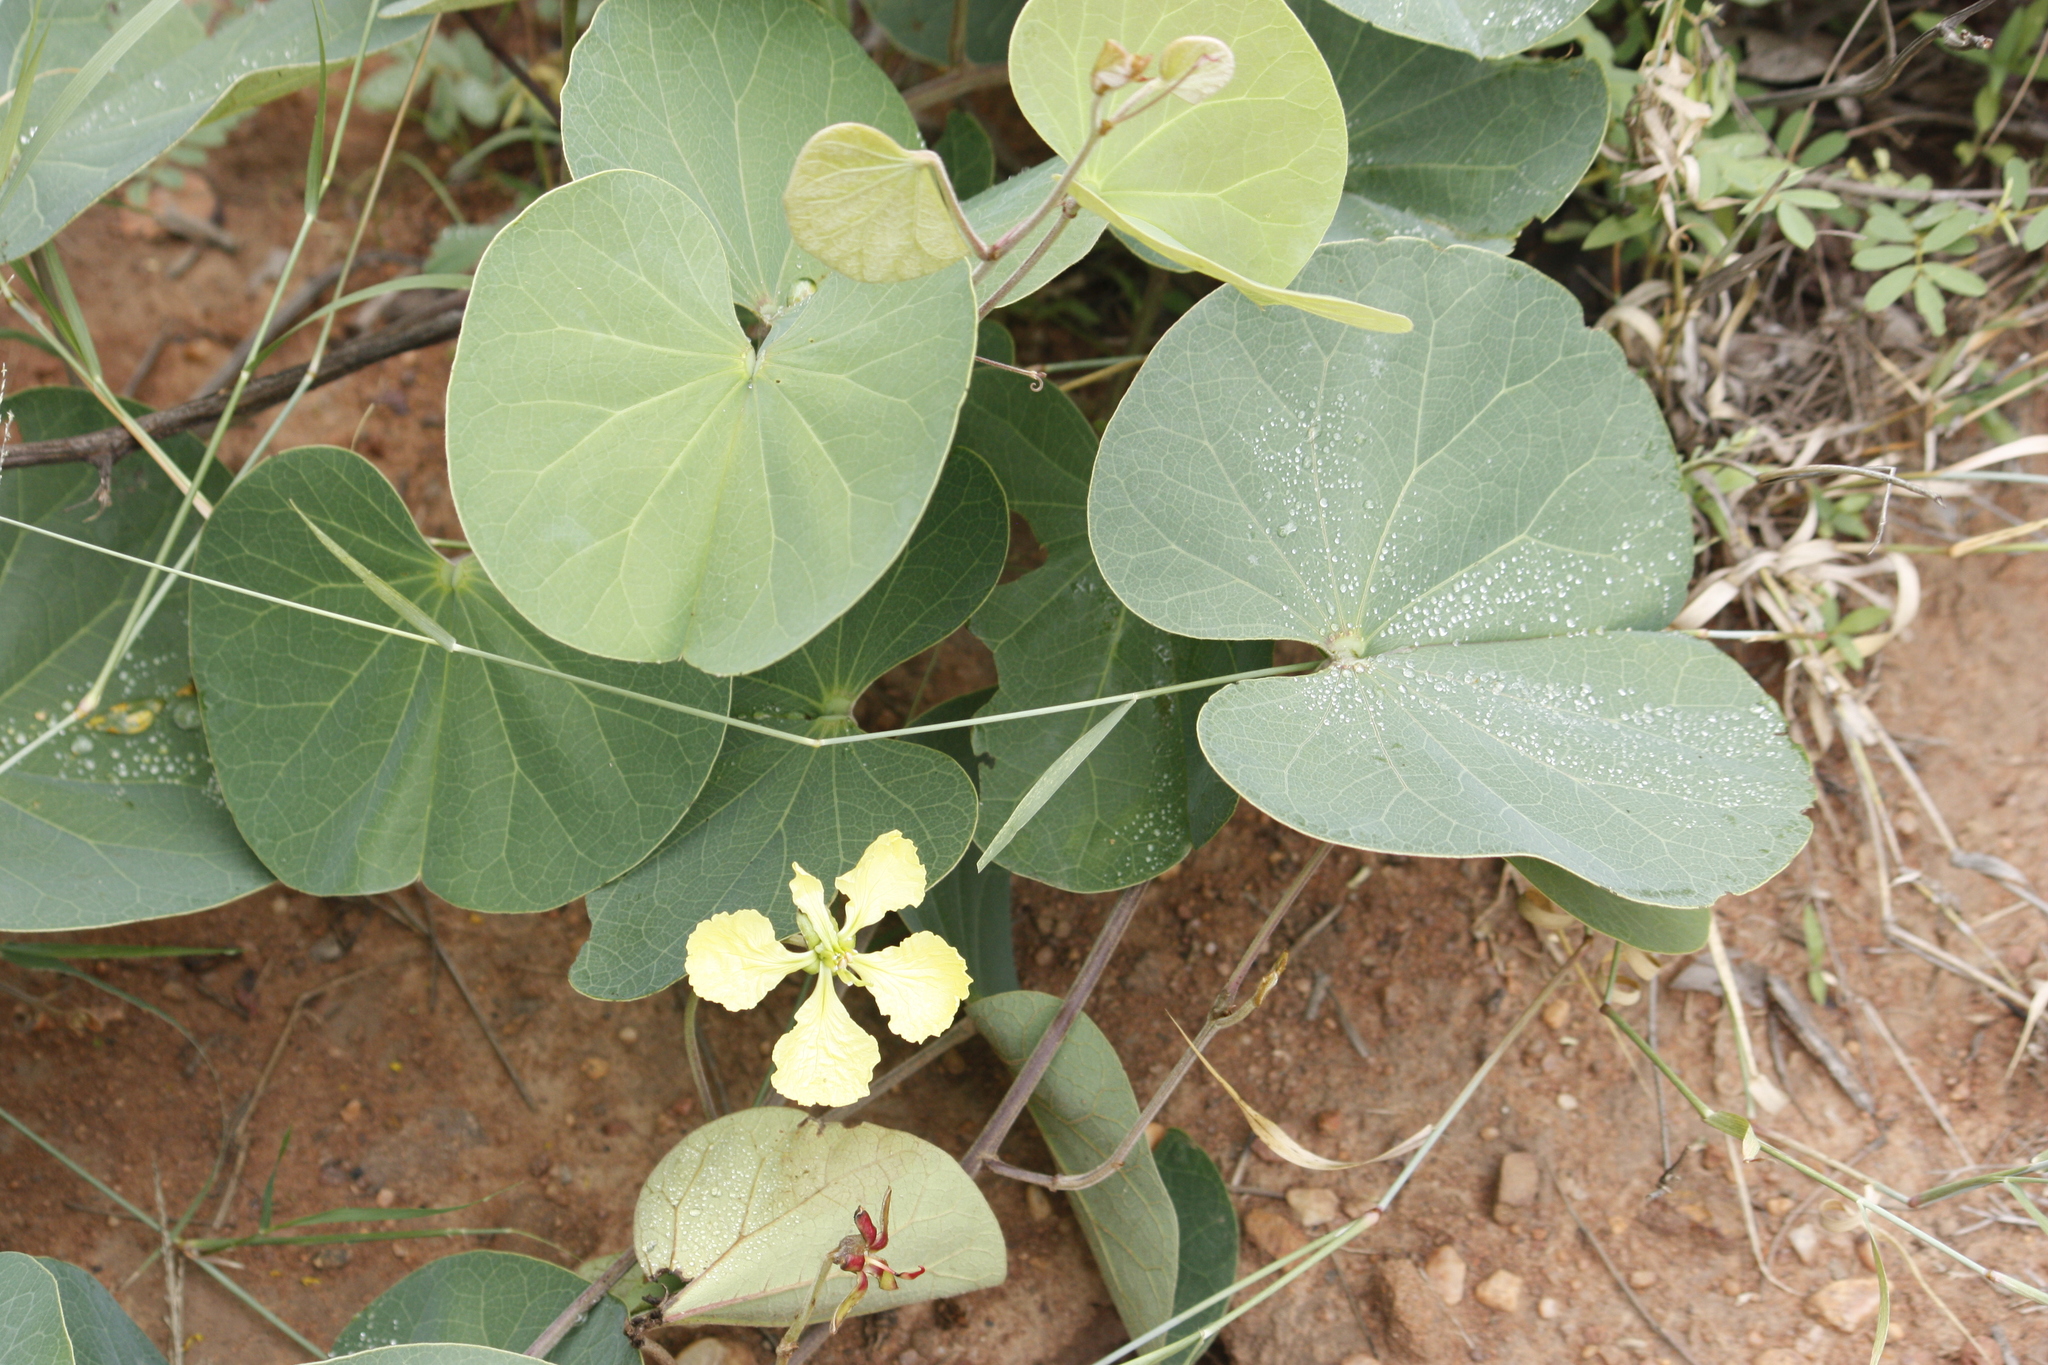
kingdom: Plantae
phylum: Tracheophyta
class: Magnoliopsida
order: Fabales
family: Fabaceae
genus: Tylosema
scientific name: Tylosema fassoglense
